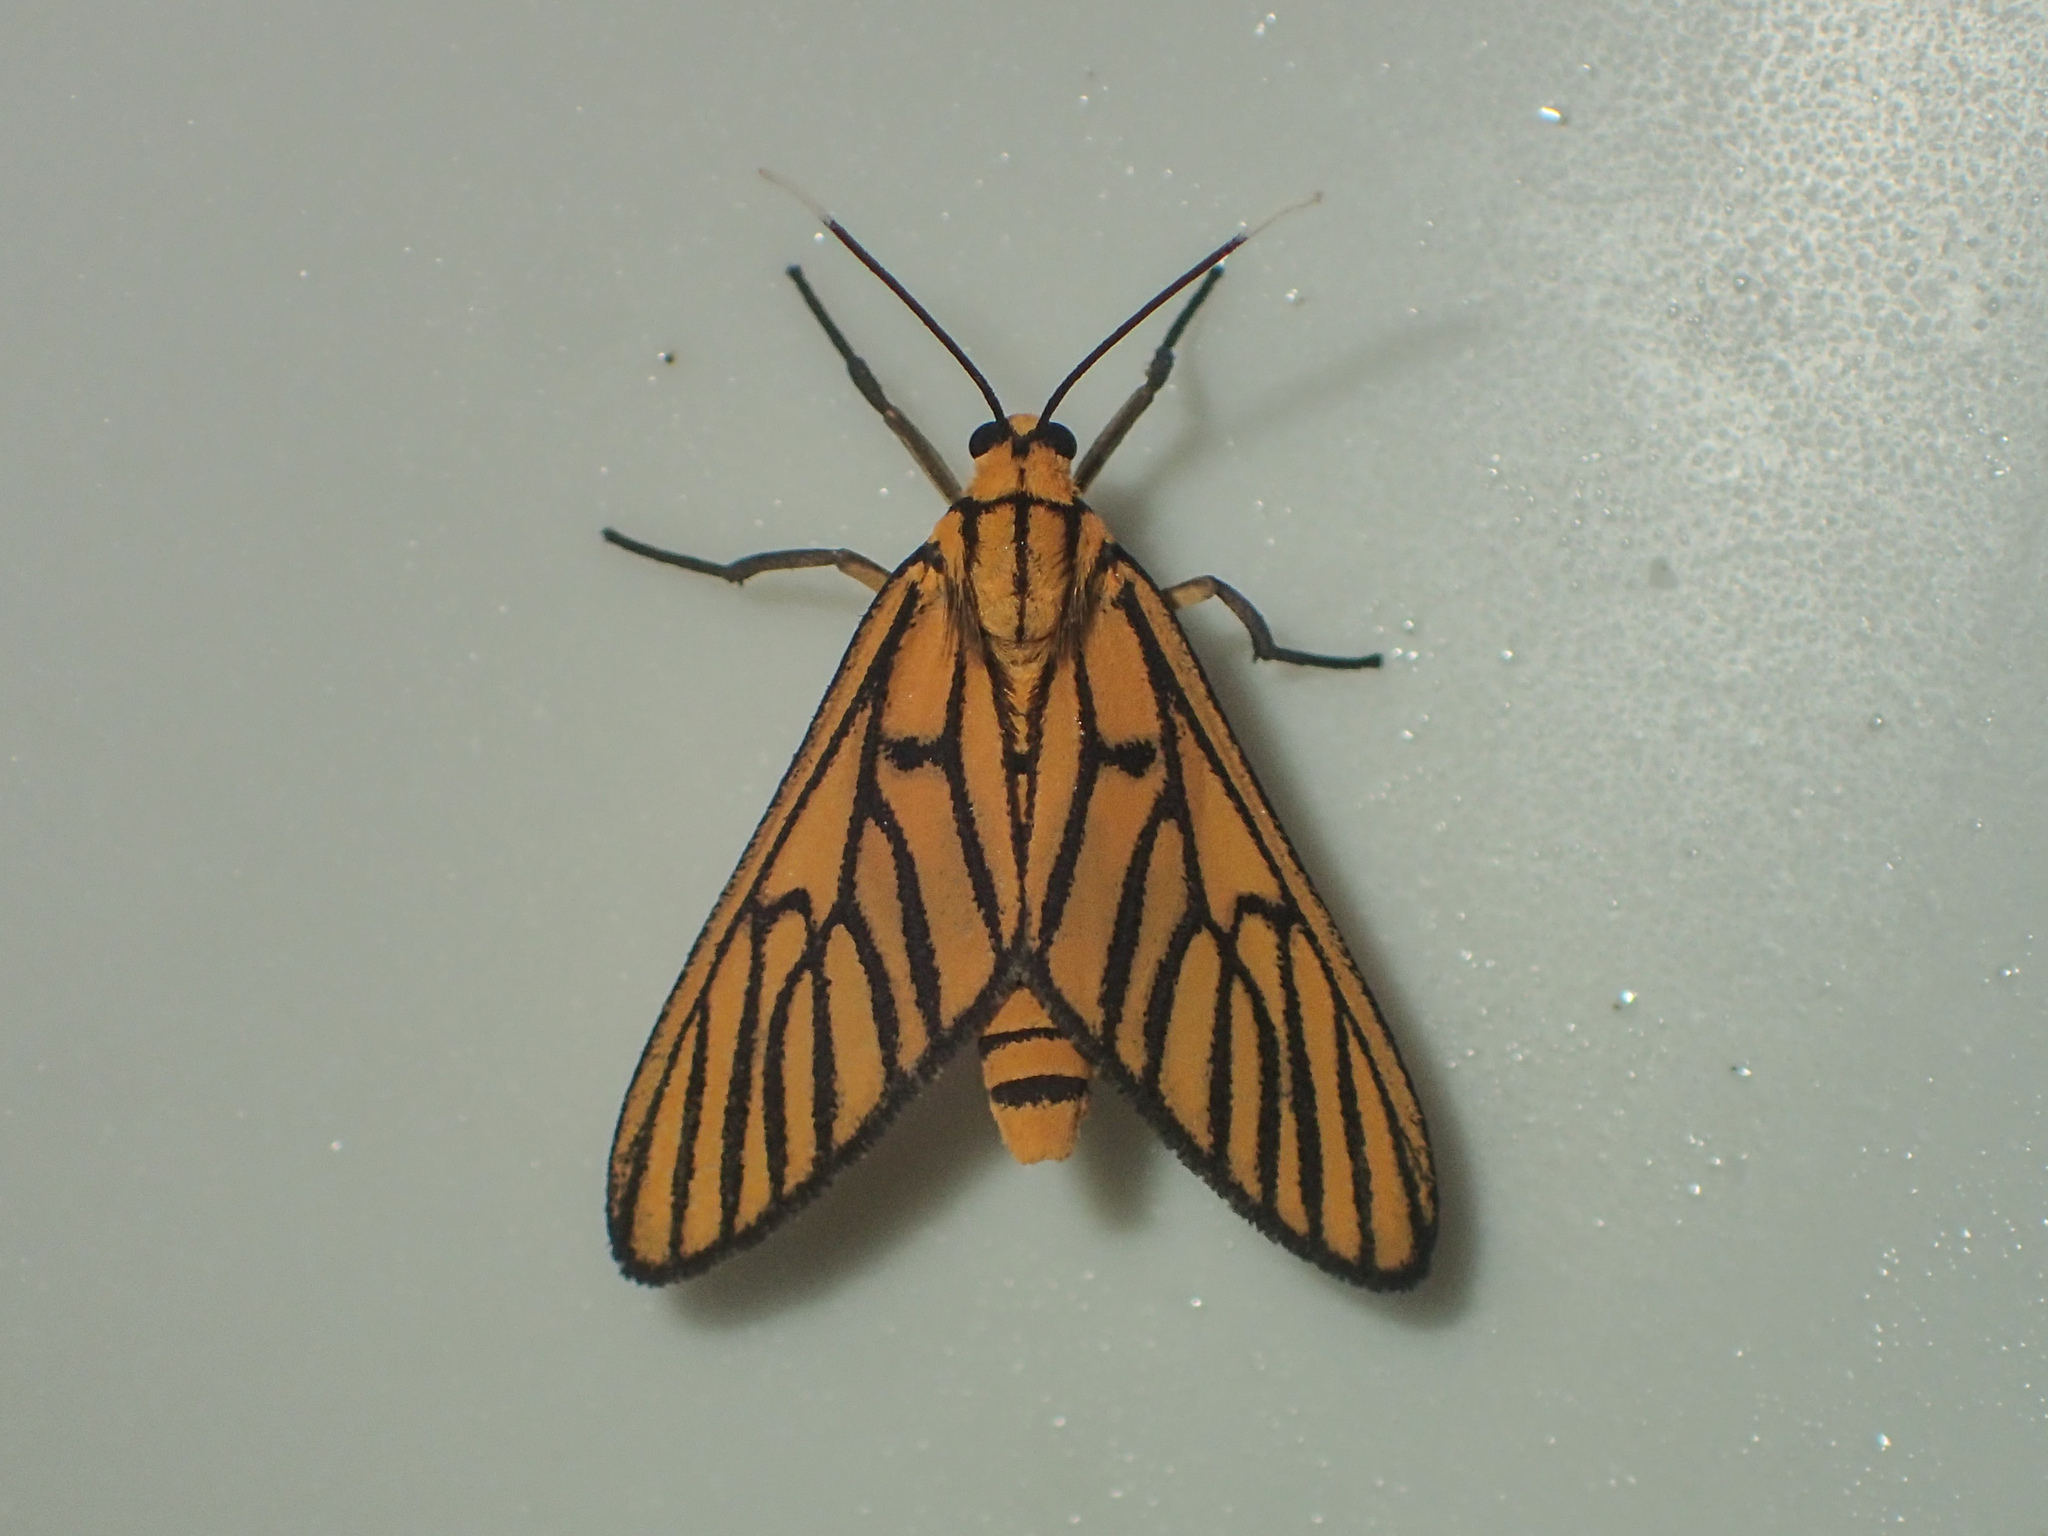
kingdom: Animalia
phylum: Arthropoda
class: Insecta
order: Lepidoptera
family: Erebidae
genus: Amata
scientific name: Amata tigrina
